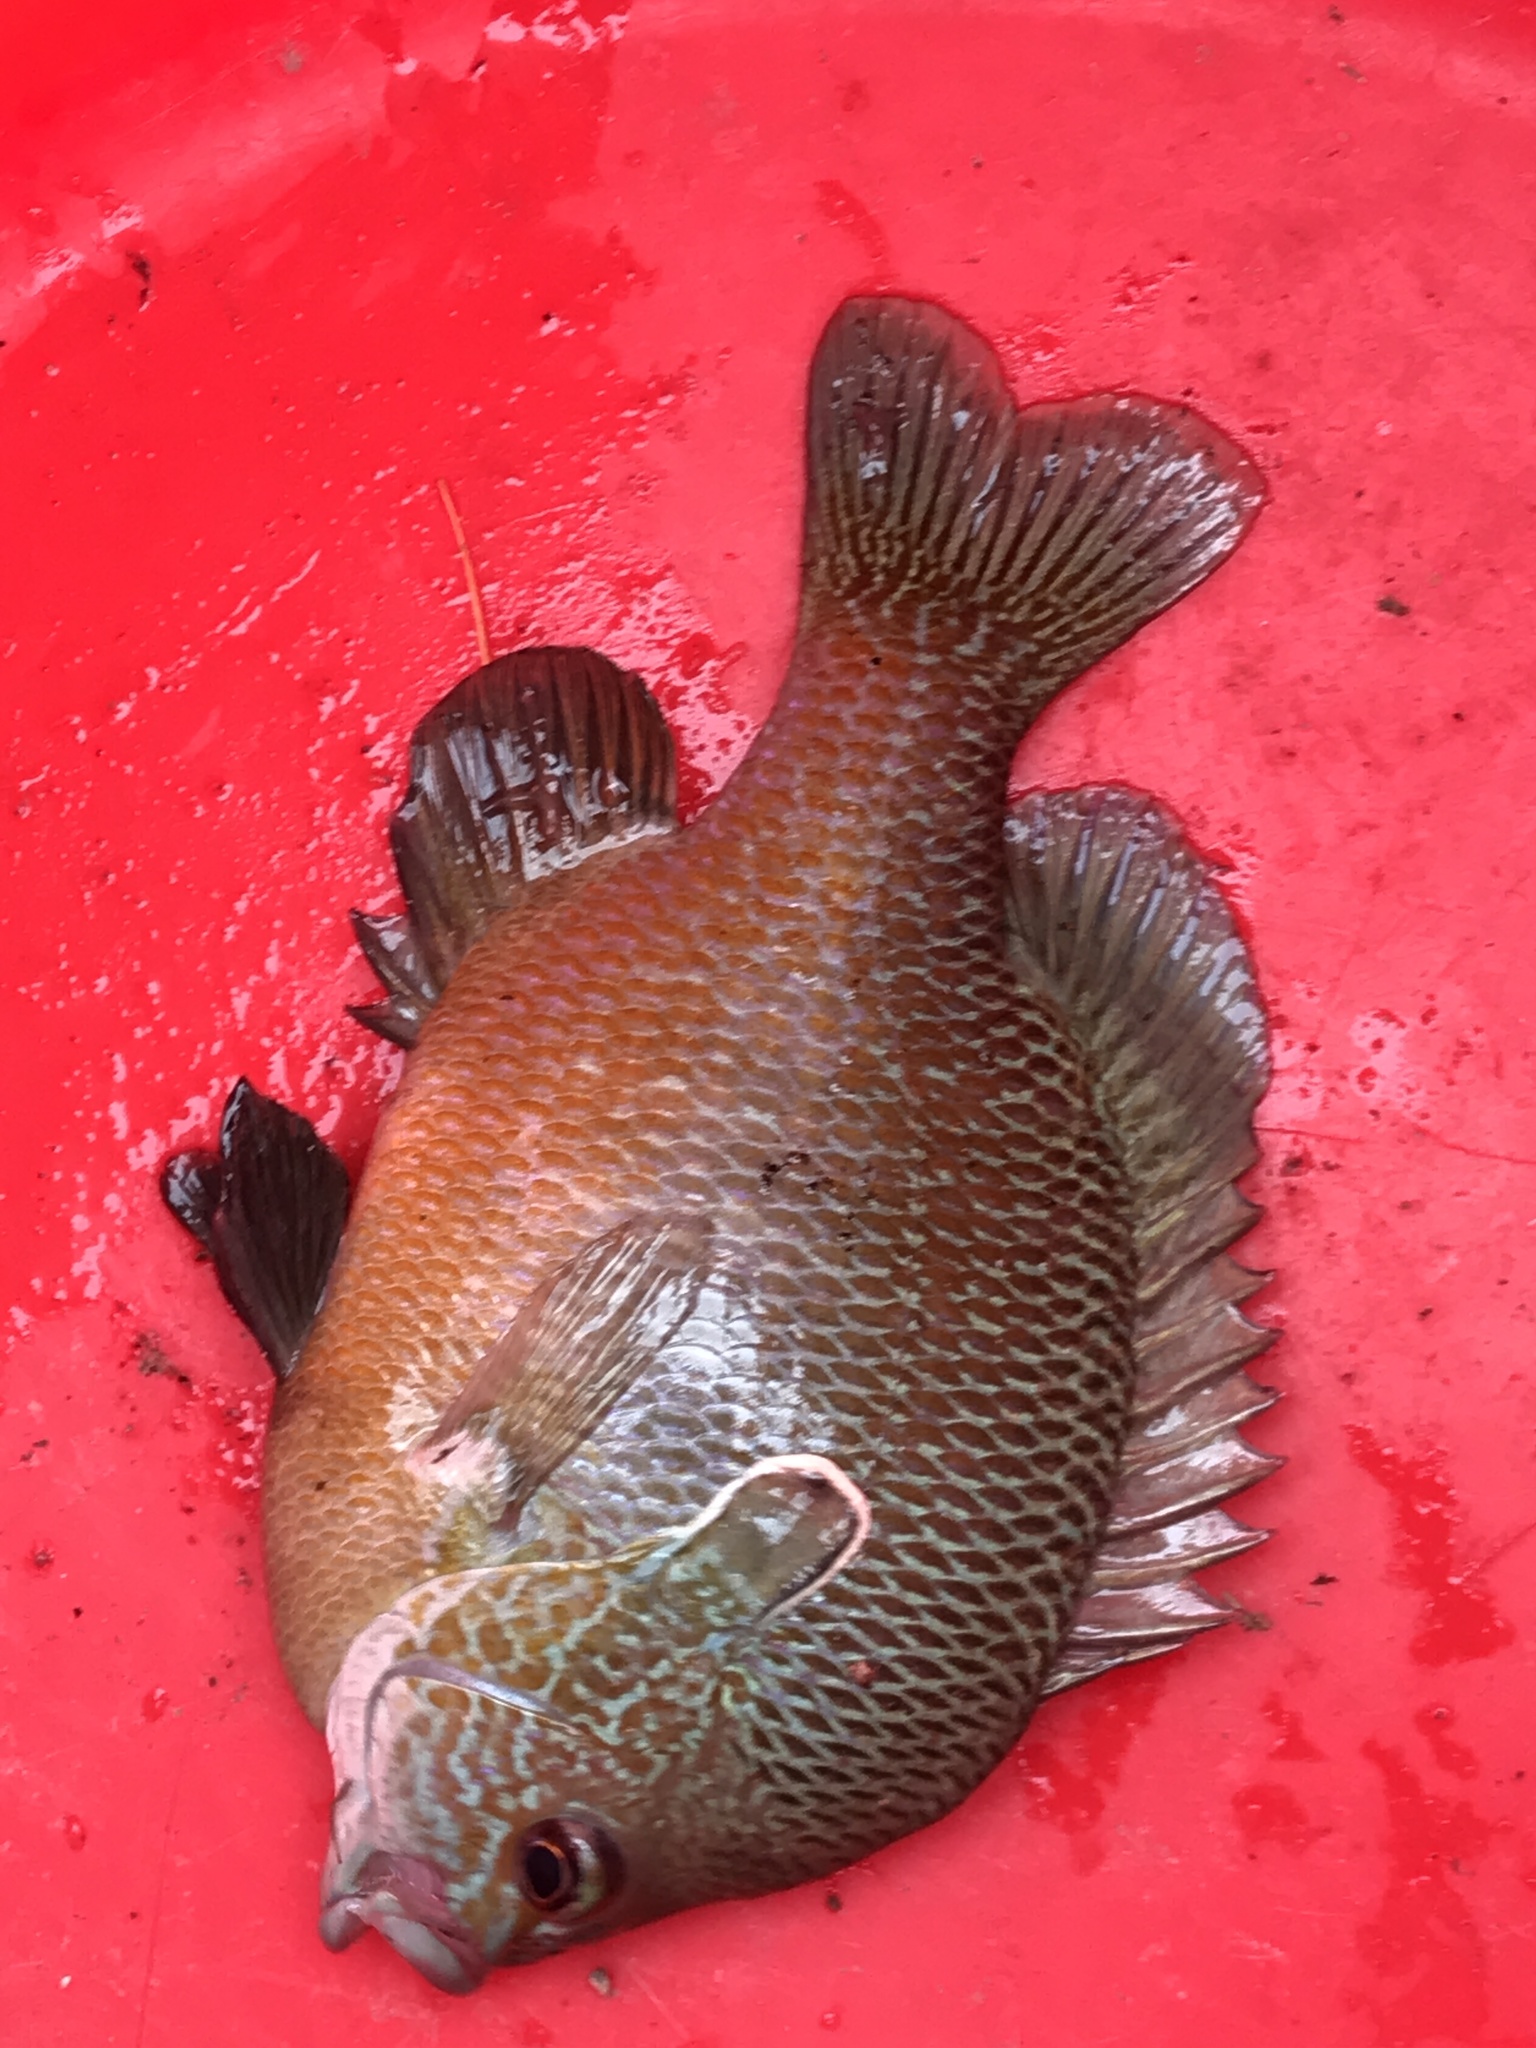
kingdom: Animalia
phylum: Chordata
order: Perciformes
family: Centrarchidae
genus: Lepomis
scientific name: Lepomis megalotis
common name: Longear sunfish
